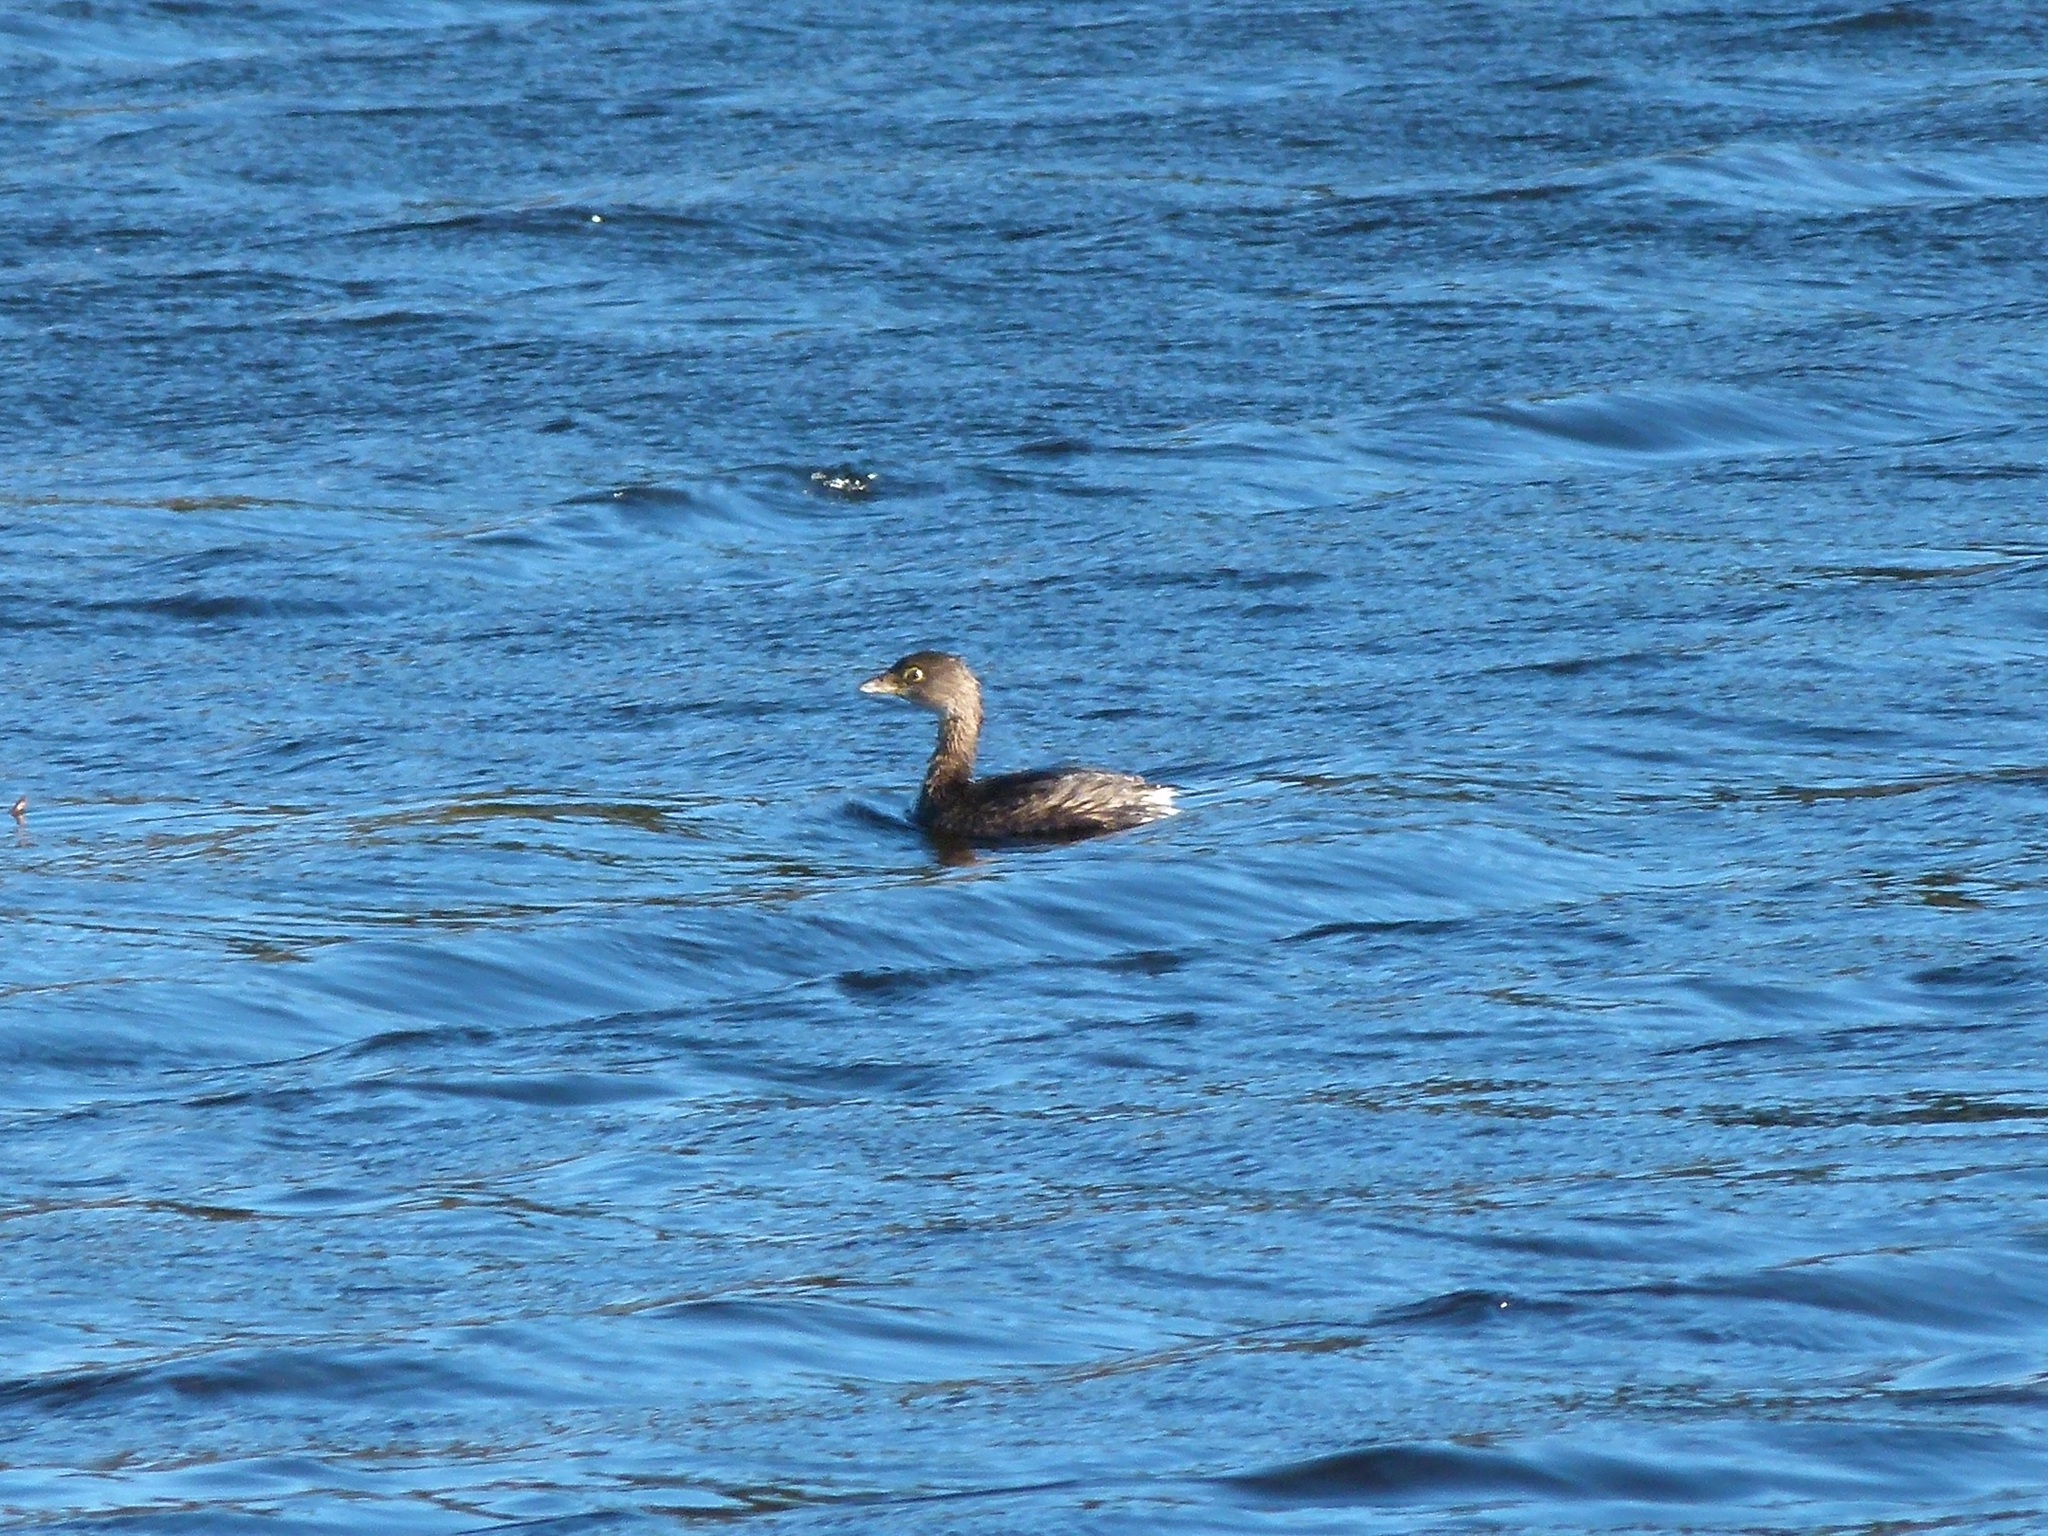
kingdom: Animalia
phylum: Chordata
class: Aves
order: Podicipediformes
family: Podicipedidae
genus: Podilymbus
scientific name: Podilymbus podiceps
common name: Pied-billed grebe
